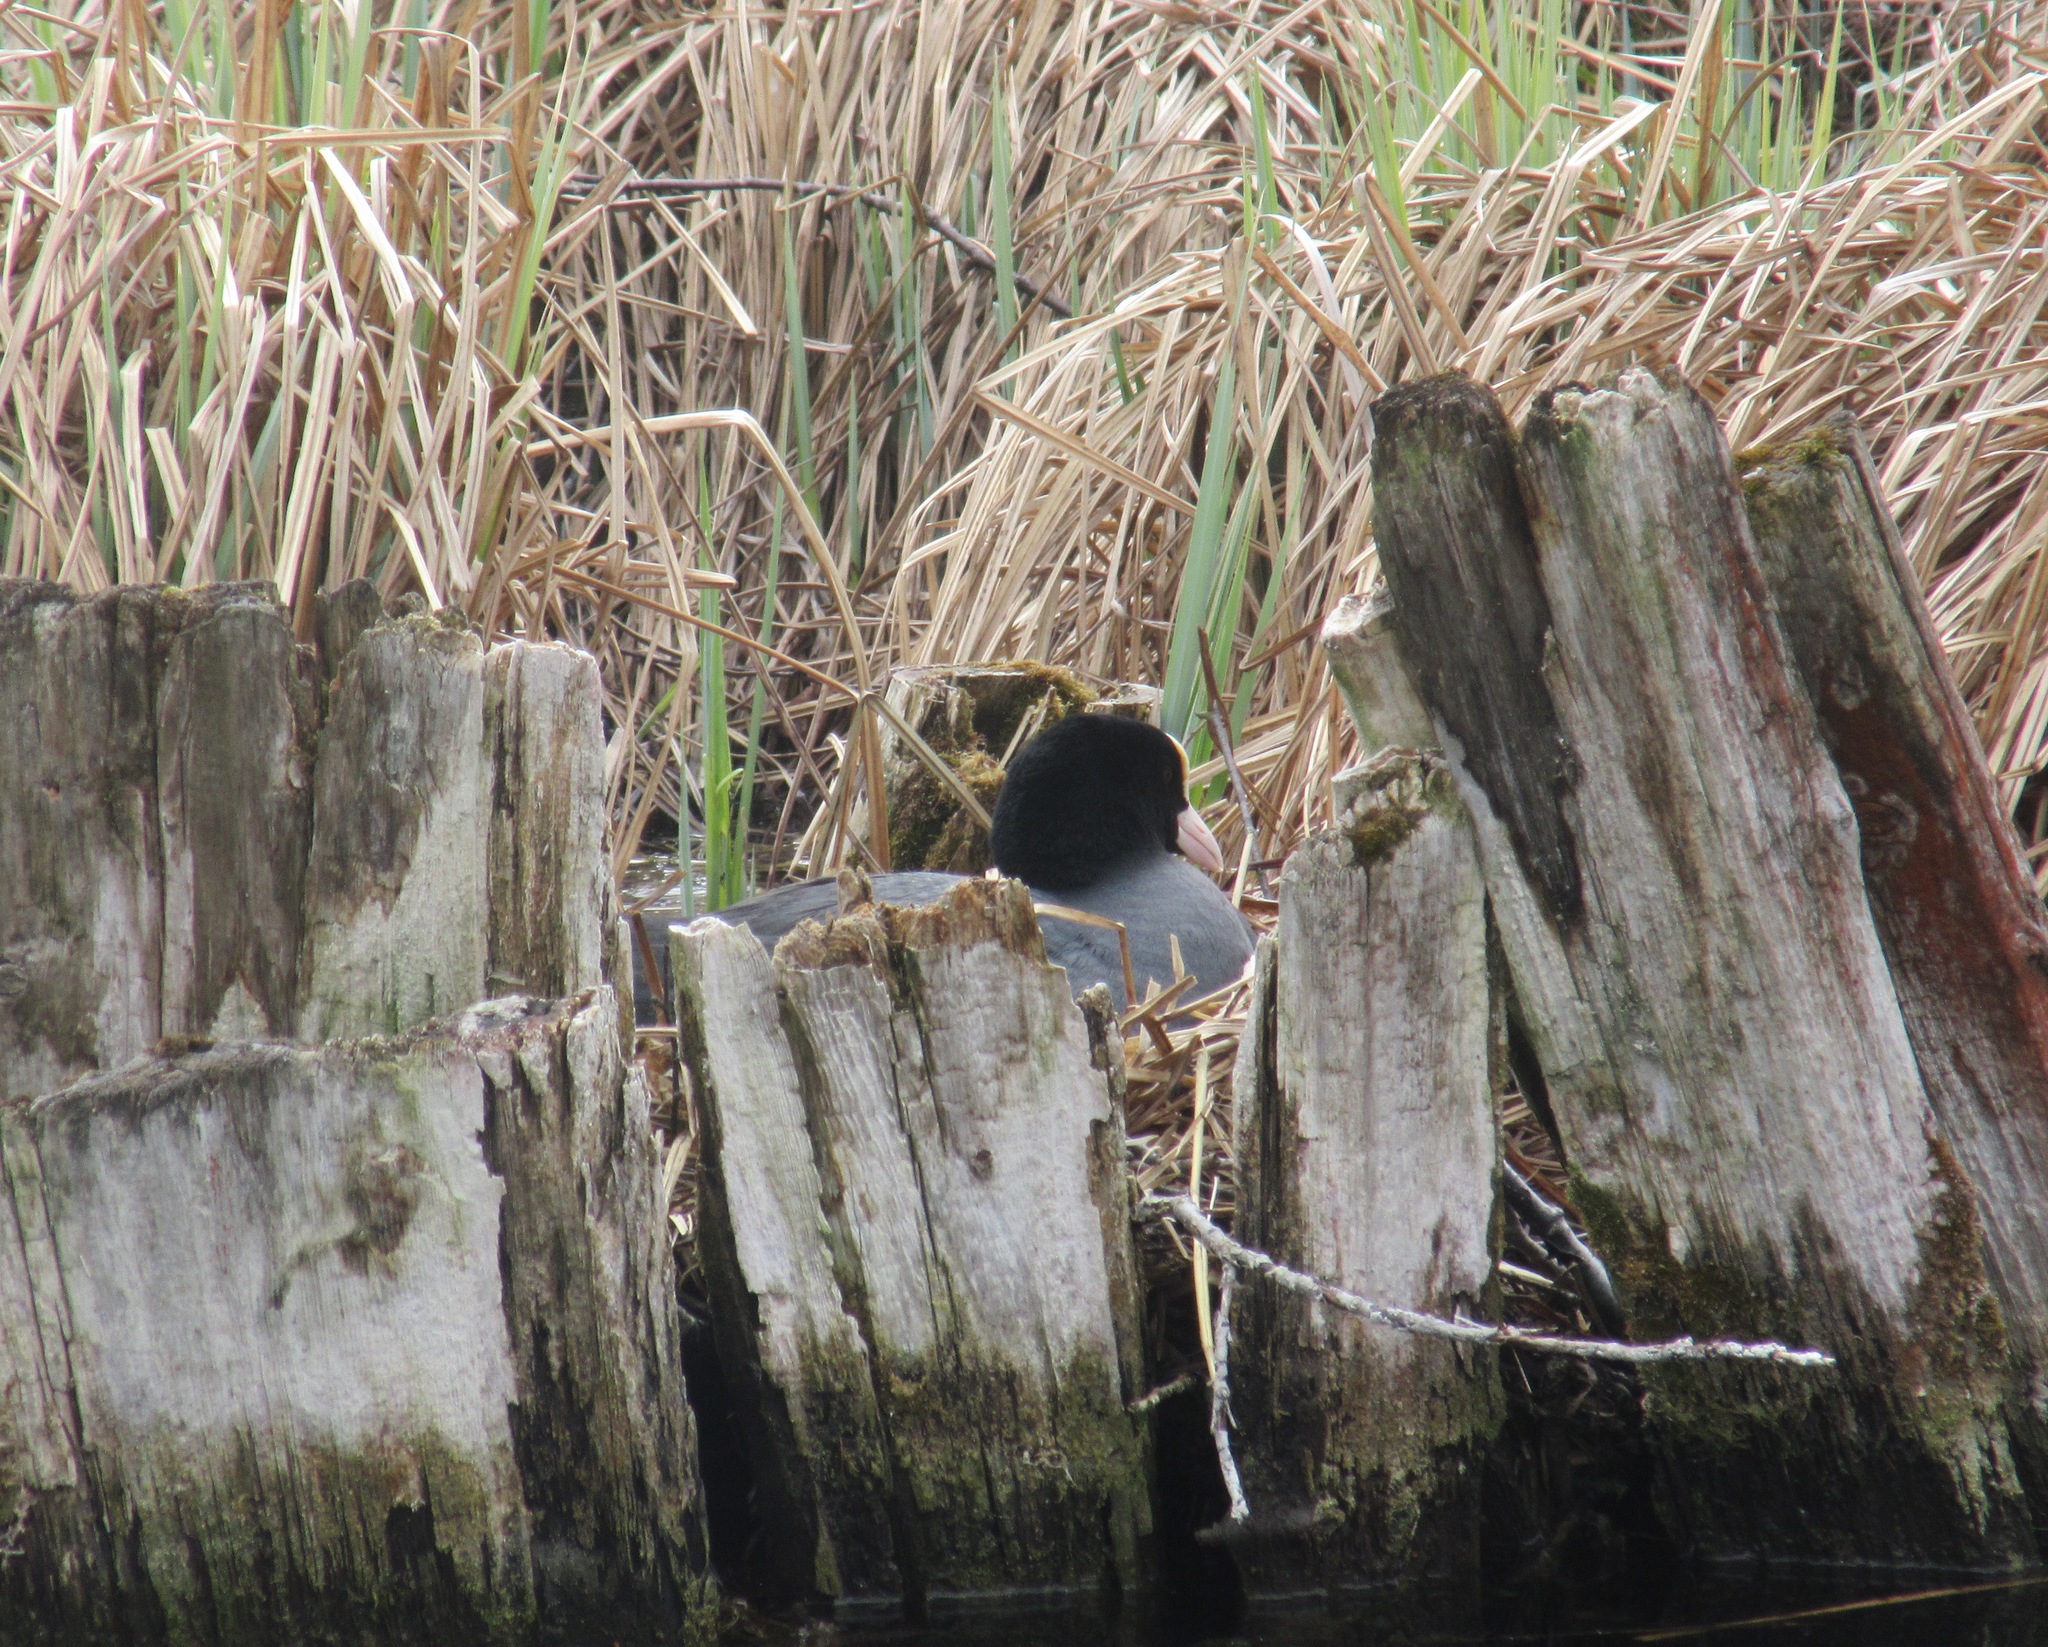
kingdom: Animalia
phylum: Chordata
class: Aves
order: Gruiformes
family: Rallidae
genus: Fulica
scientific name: Fulica atra
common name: Eurasian coot
